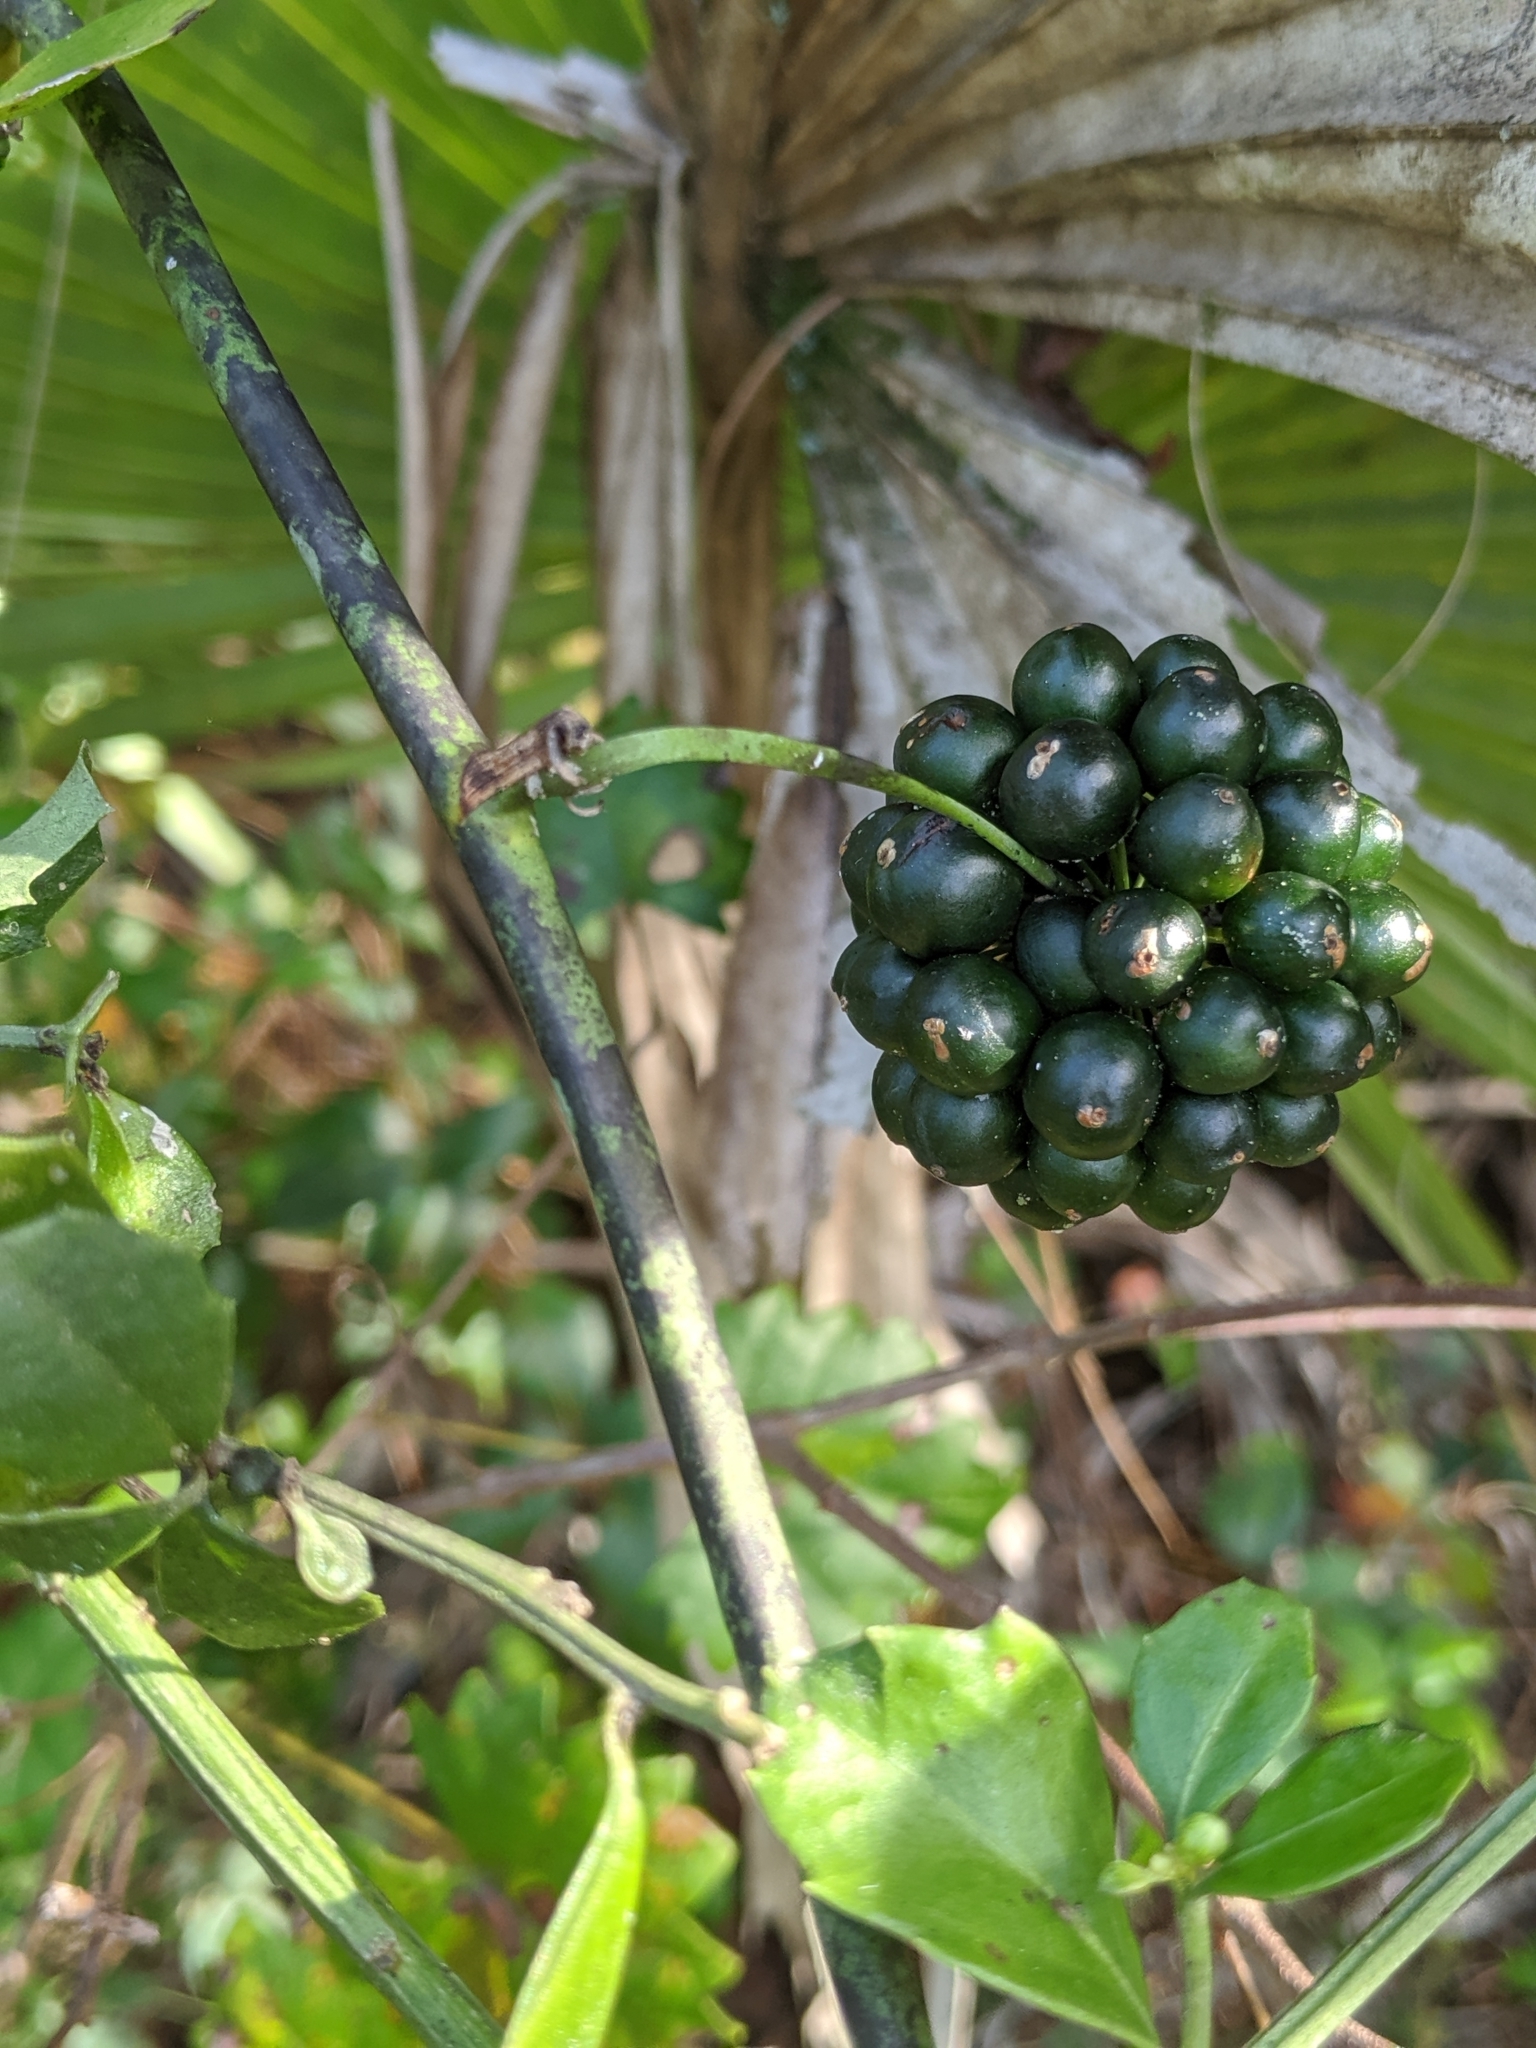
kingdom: Plantae
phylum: Tracheophyta
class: Liliopsida
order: Liliales
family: Smilacaceae
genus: Smilax
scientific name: Smilax tamnoides
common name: Hellfetter
